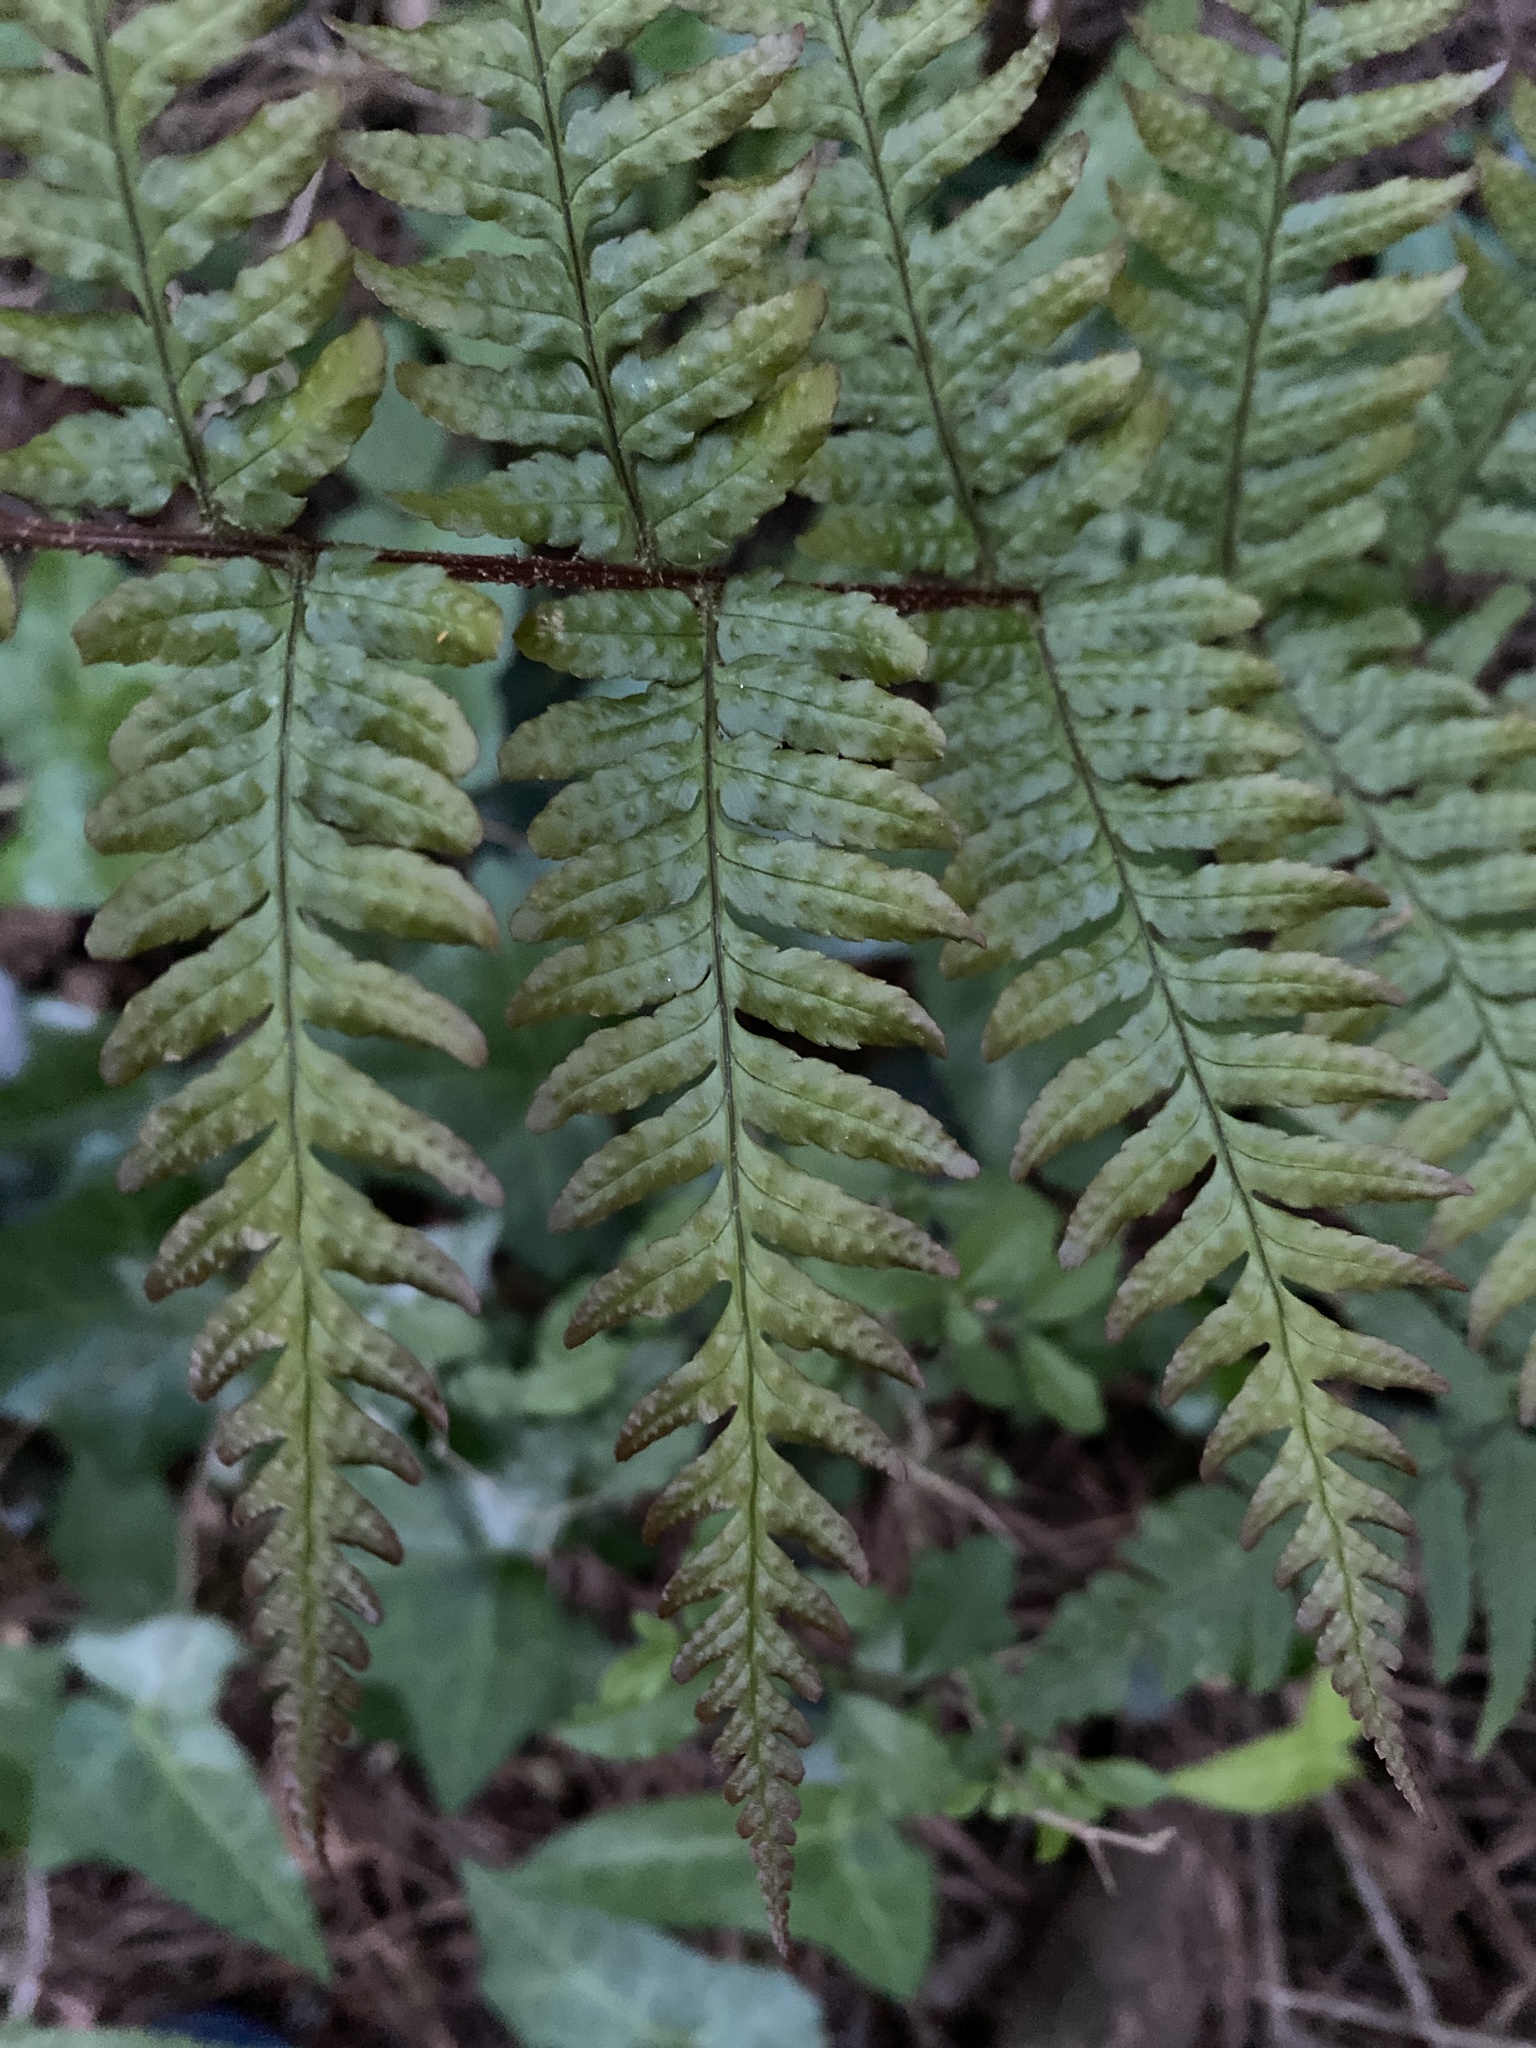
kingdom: Plantae
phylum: Tracheophyta
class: Polypodiopsida
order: Polypodiales
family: Dryopteridaceae
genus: Dryopteris
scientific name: Dryopteris erythrosora
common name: Autumn fern
